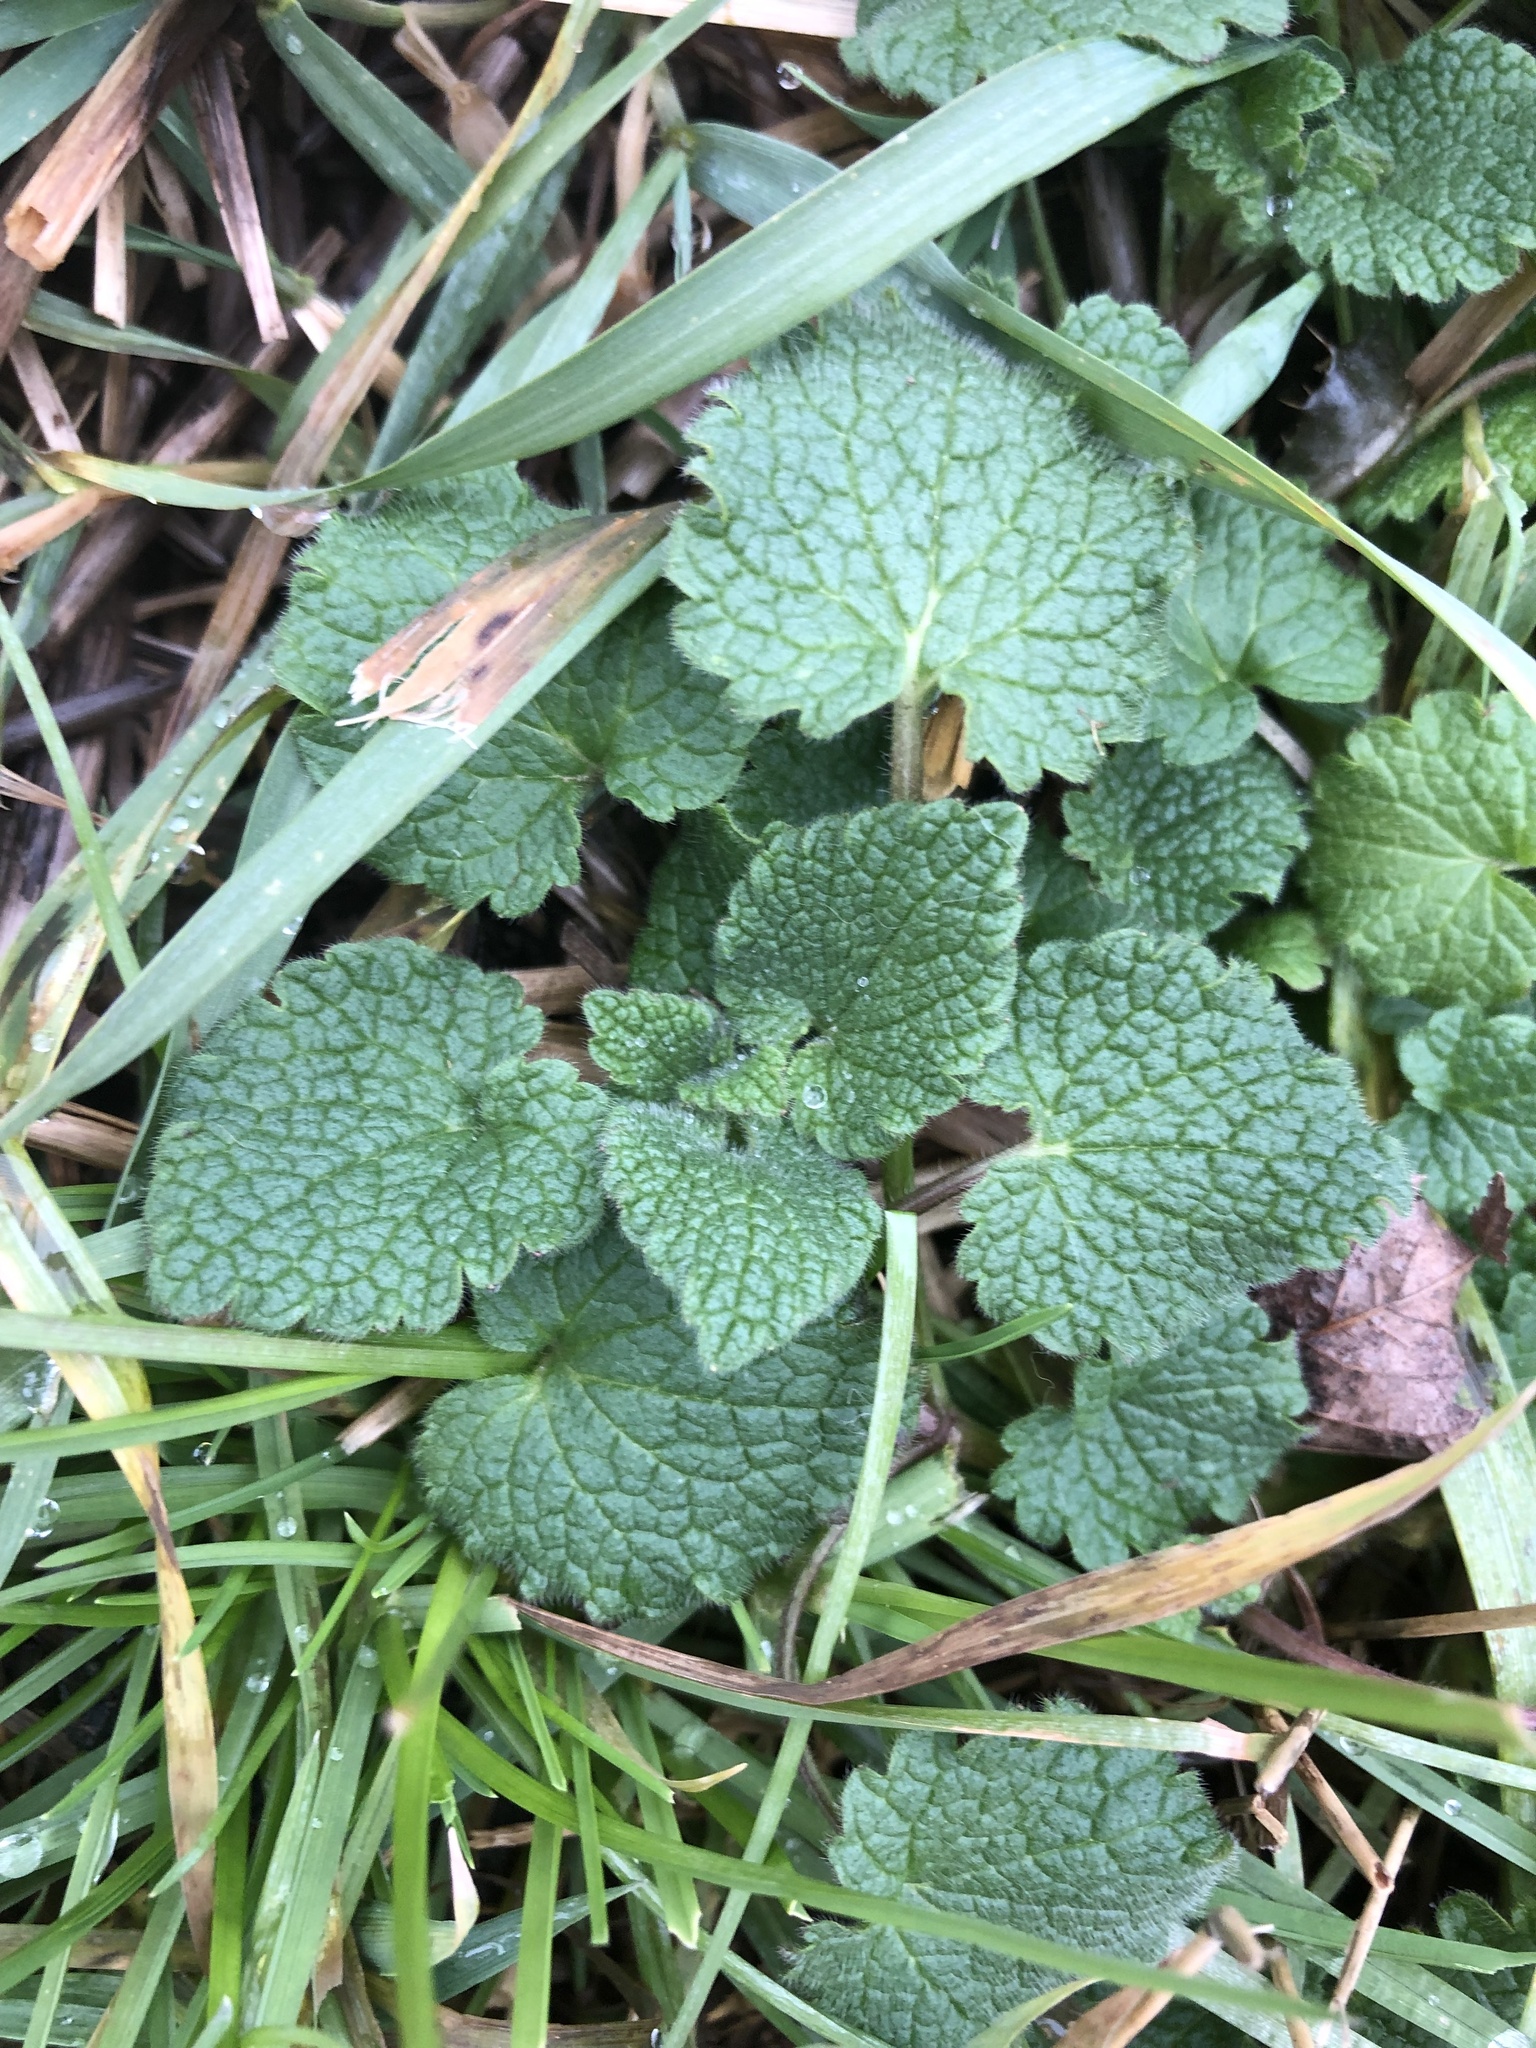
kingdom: Plantae
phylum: Tracheophyta
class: Magnoliopsida
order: Lamiales
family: Lamiaceae
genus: Lamium
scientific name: Lamium purpureum
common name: Red dead-nettle
